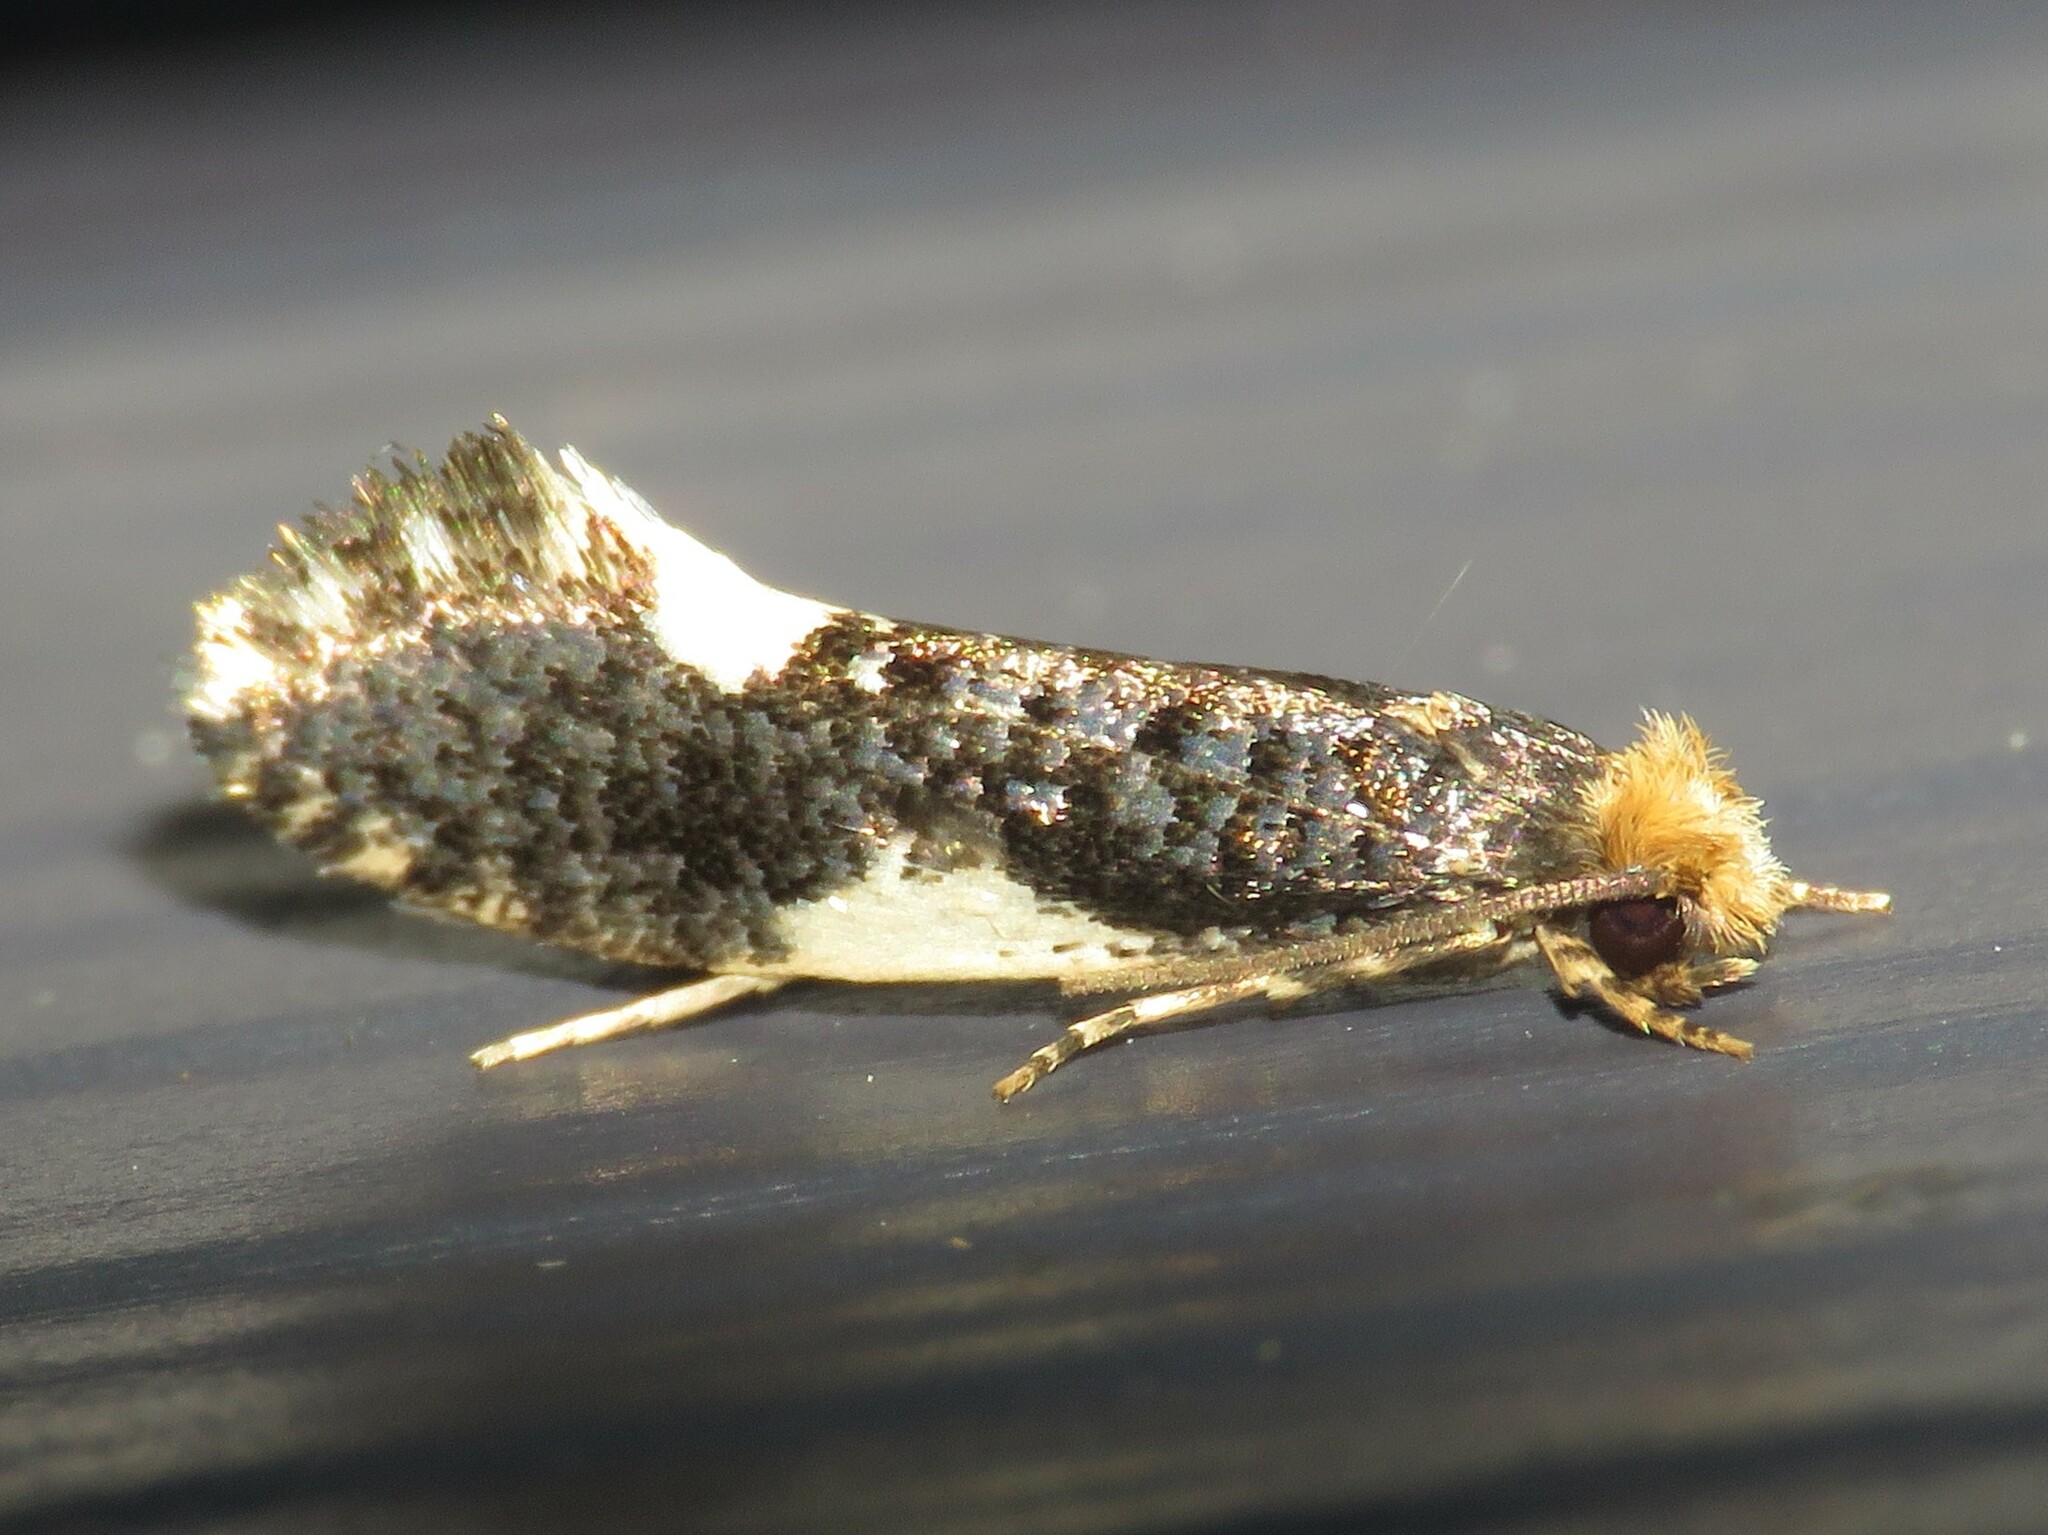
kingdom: Animalia
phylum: Arthropoda
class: Insecta
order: Lepidoptera
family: Tineidae
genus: Monopis
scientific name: Monopis spilotella
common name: Orange-headed monopis
